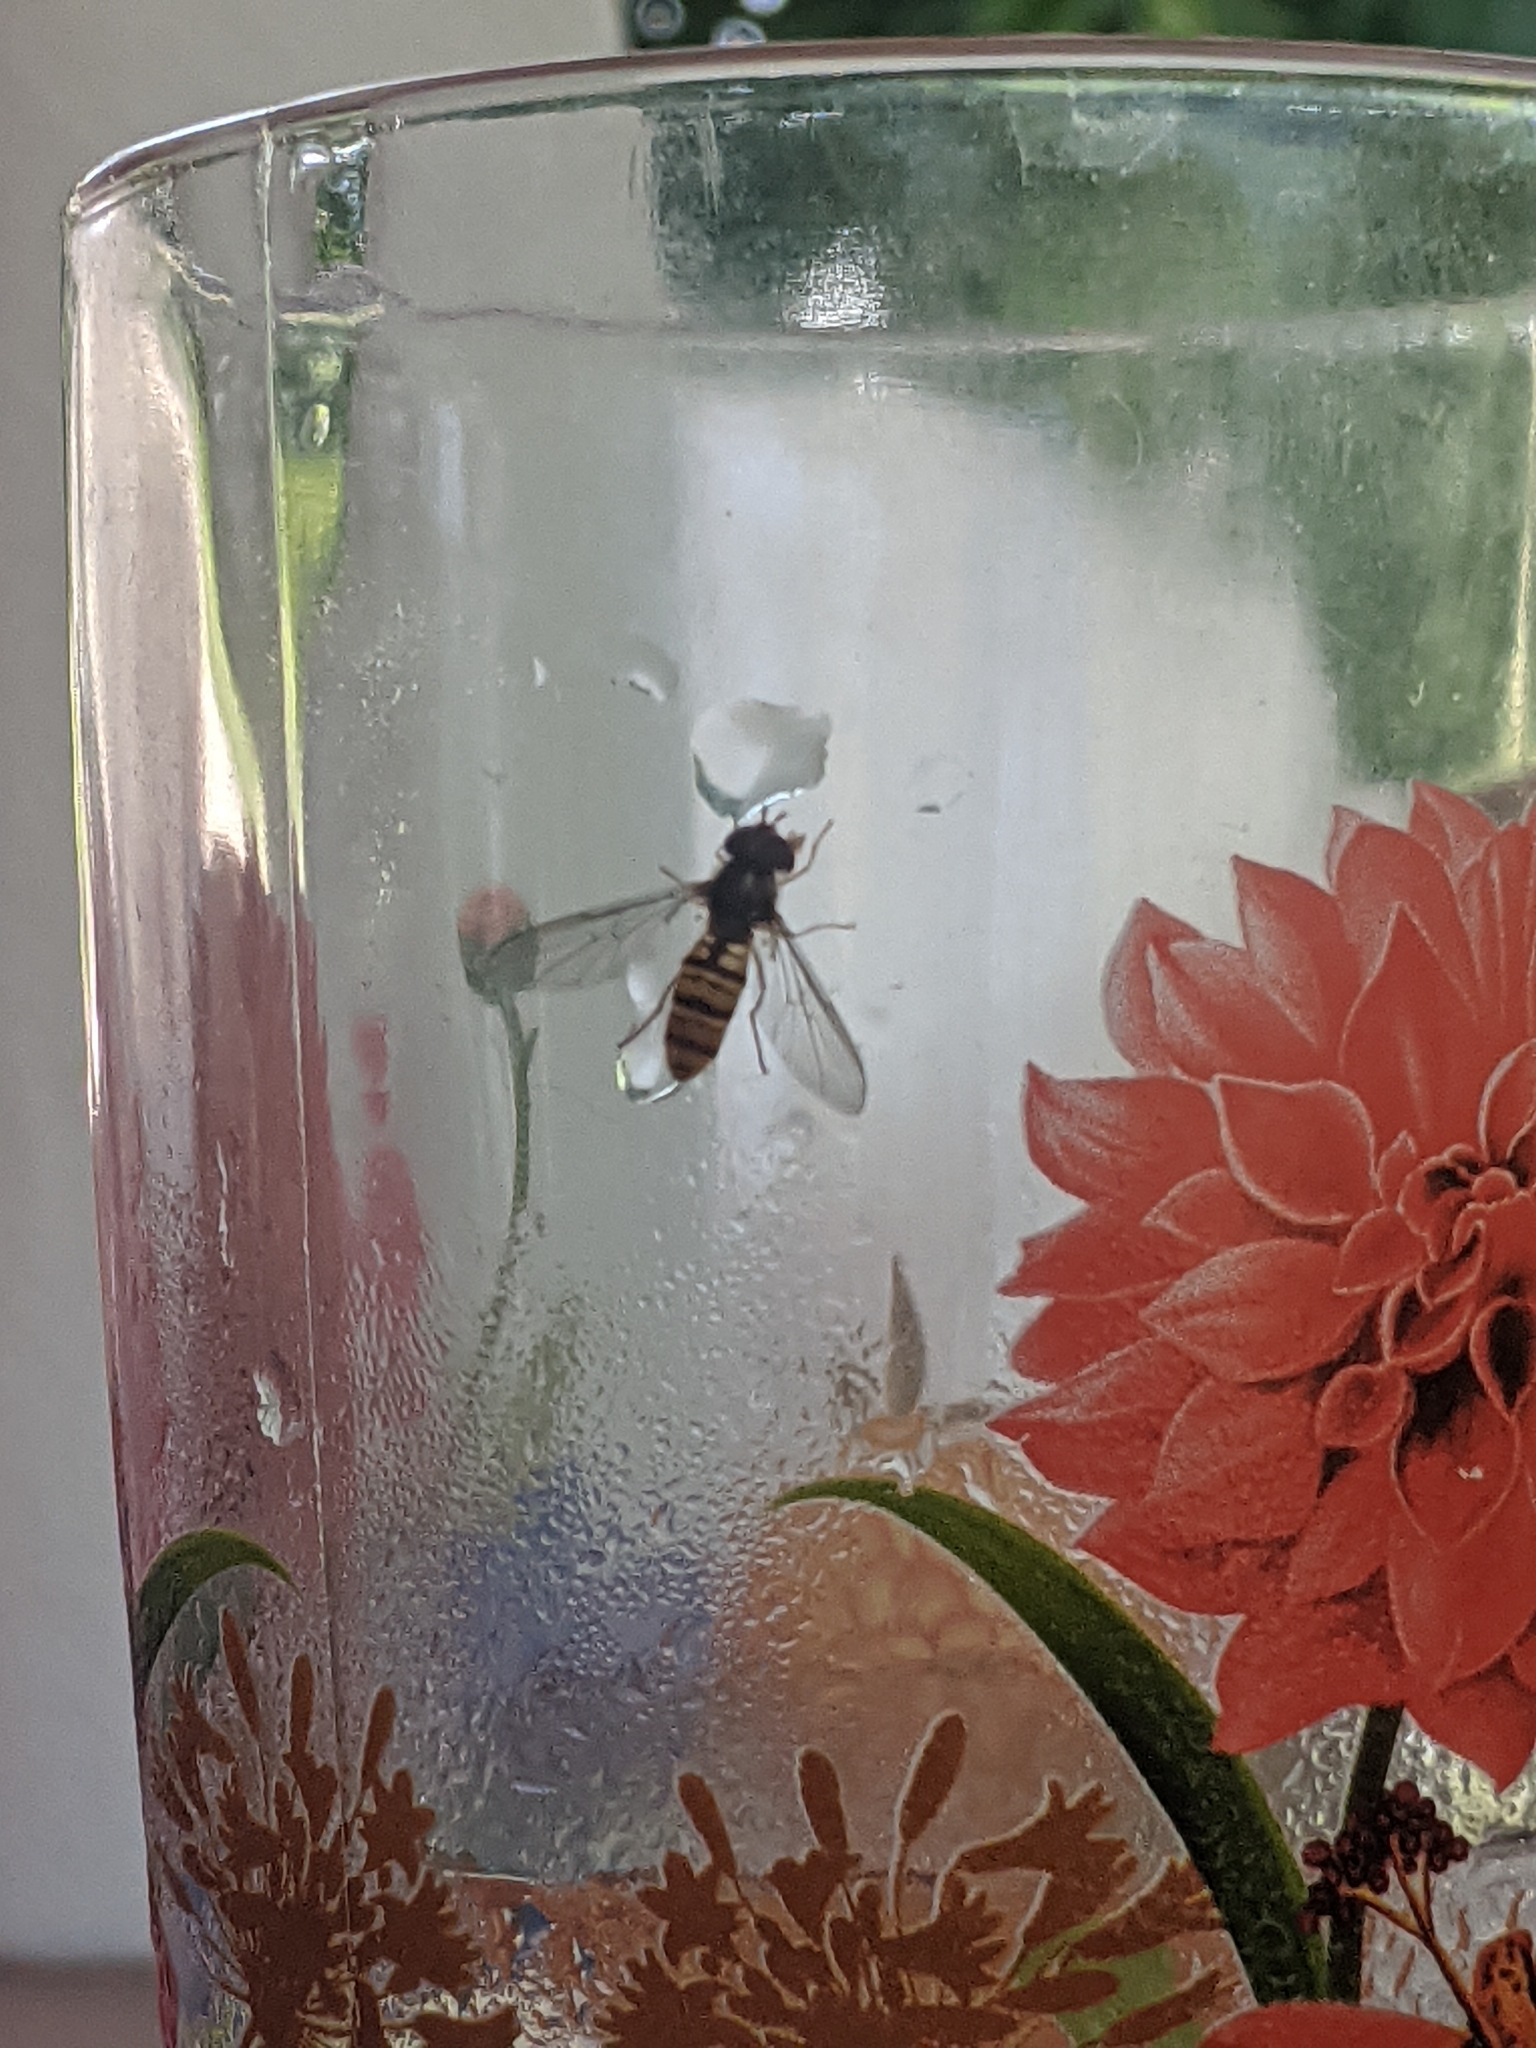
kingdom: Animalia
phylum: Arthropoda
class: Insecta
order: Diptera
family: Syrphidae
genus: Episyrphus
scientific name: Episyrphus balteatus
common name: Marmalade hoverfly
